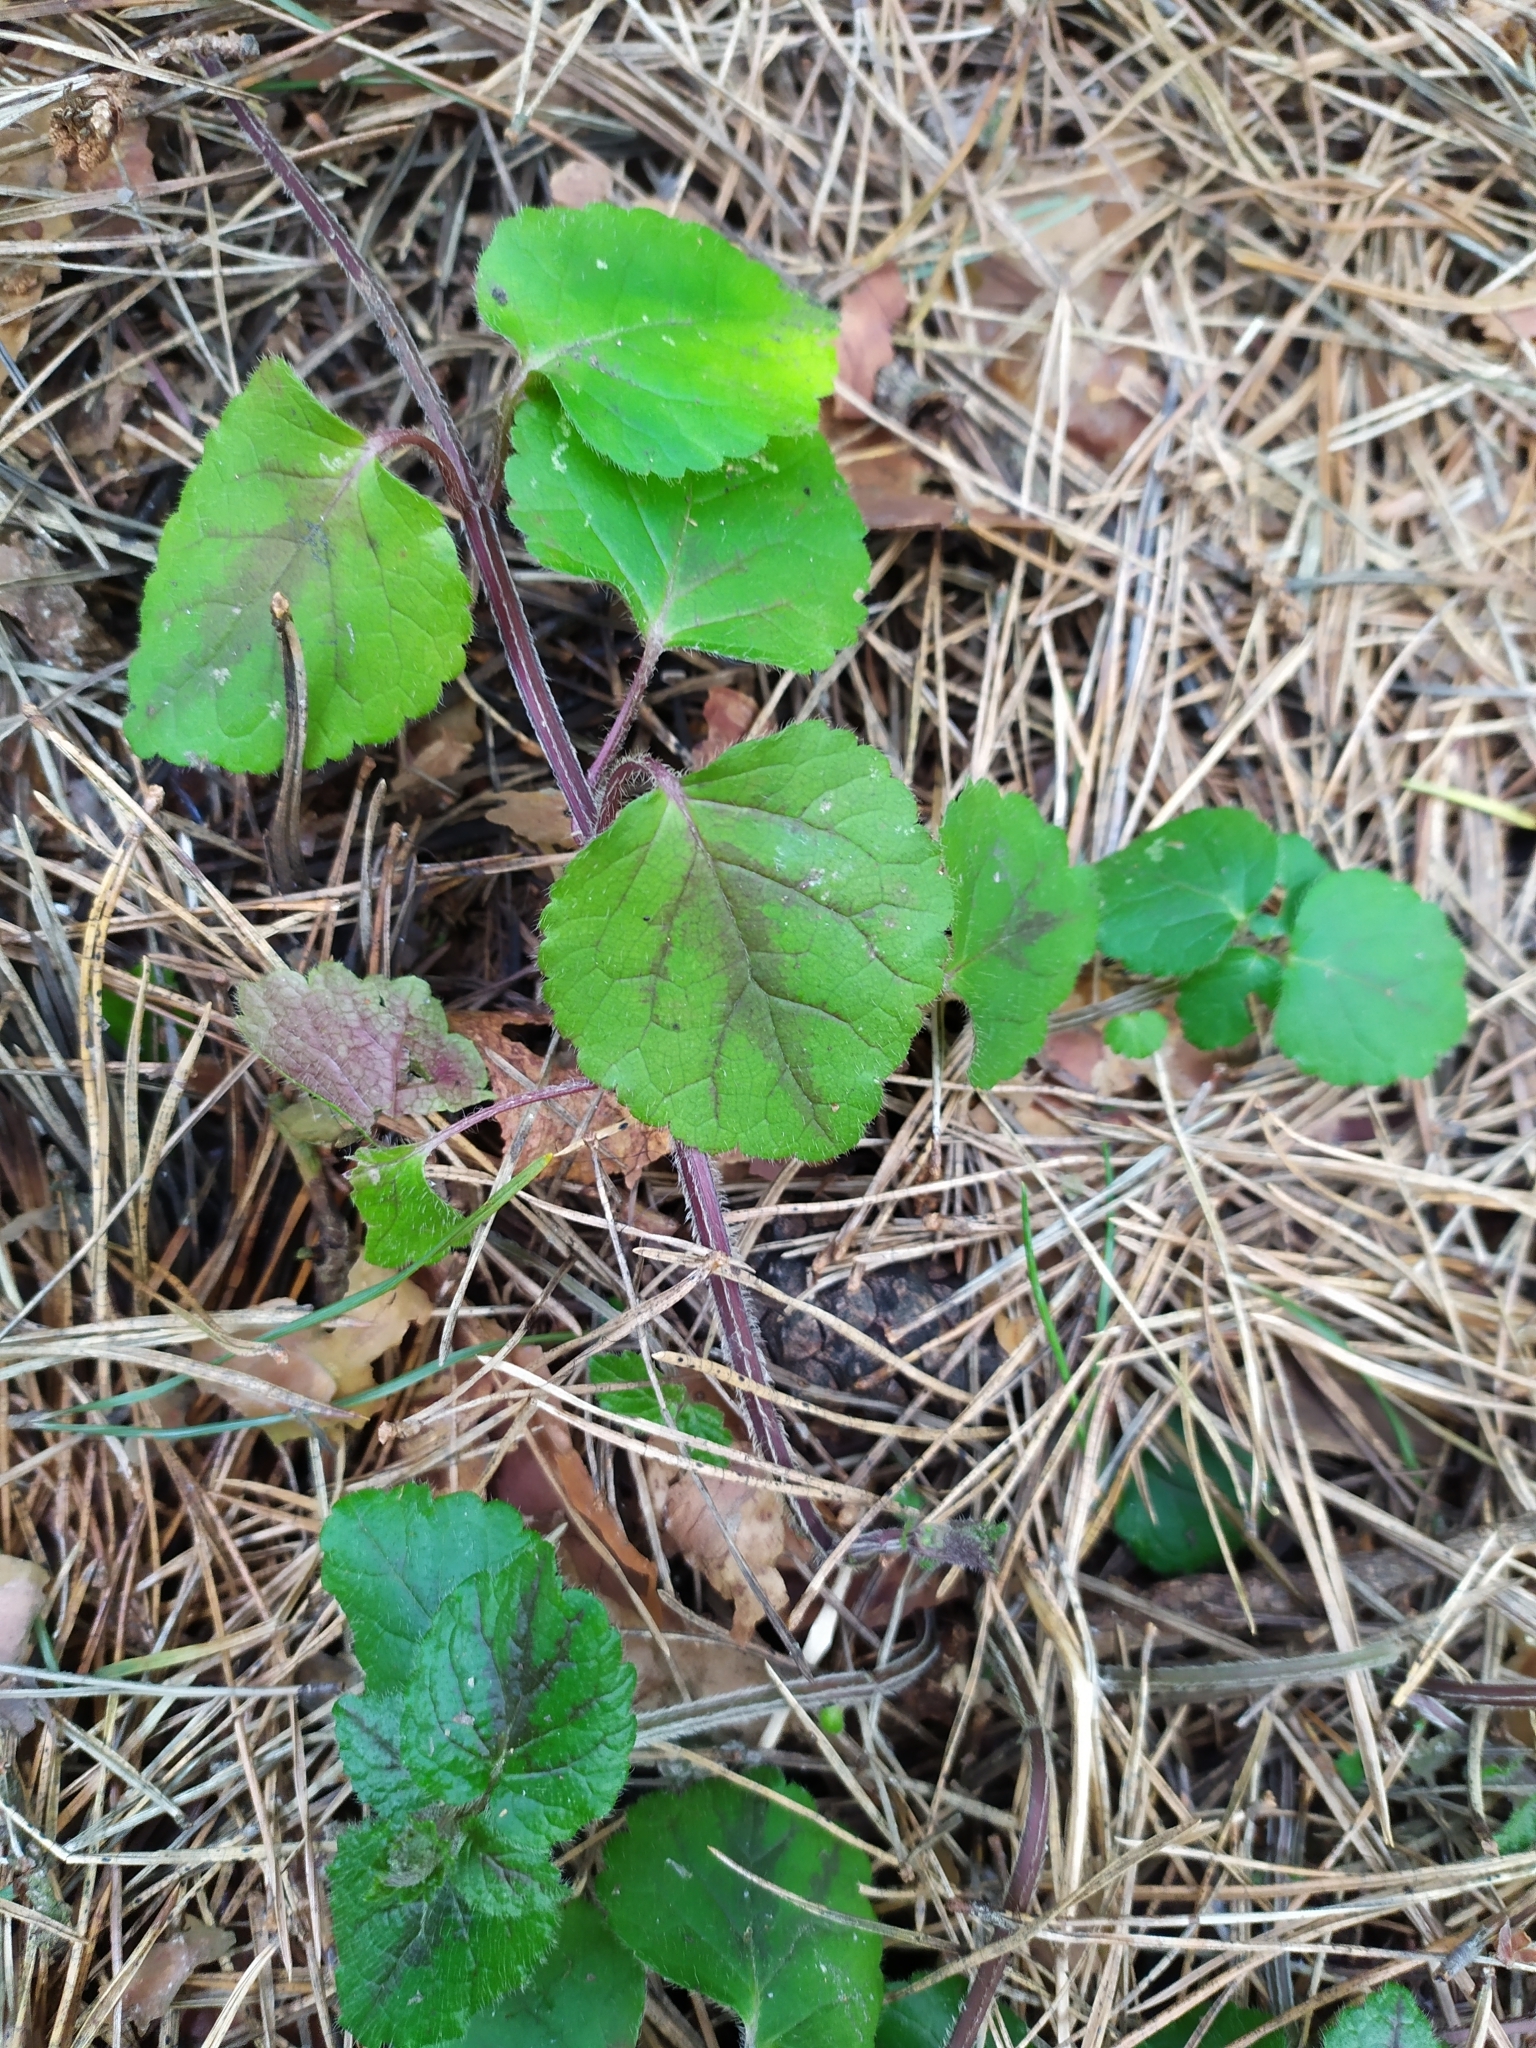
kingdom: Plantae
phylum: Tracheophyta
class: Magnoliopsida
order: Lamiales
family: Lamiaceae
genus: Lamium
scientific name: Lamium galeobdolon
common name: Yellow archangel
